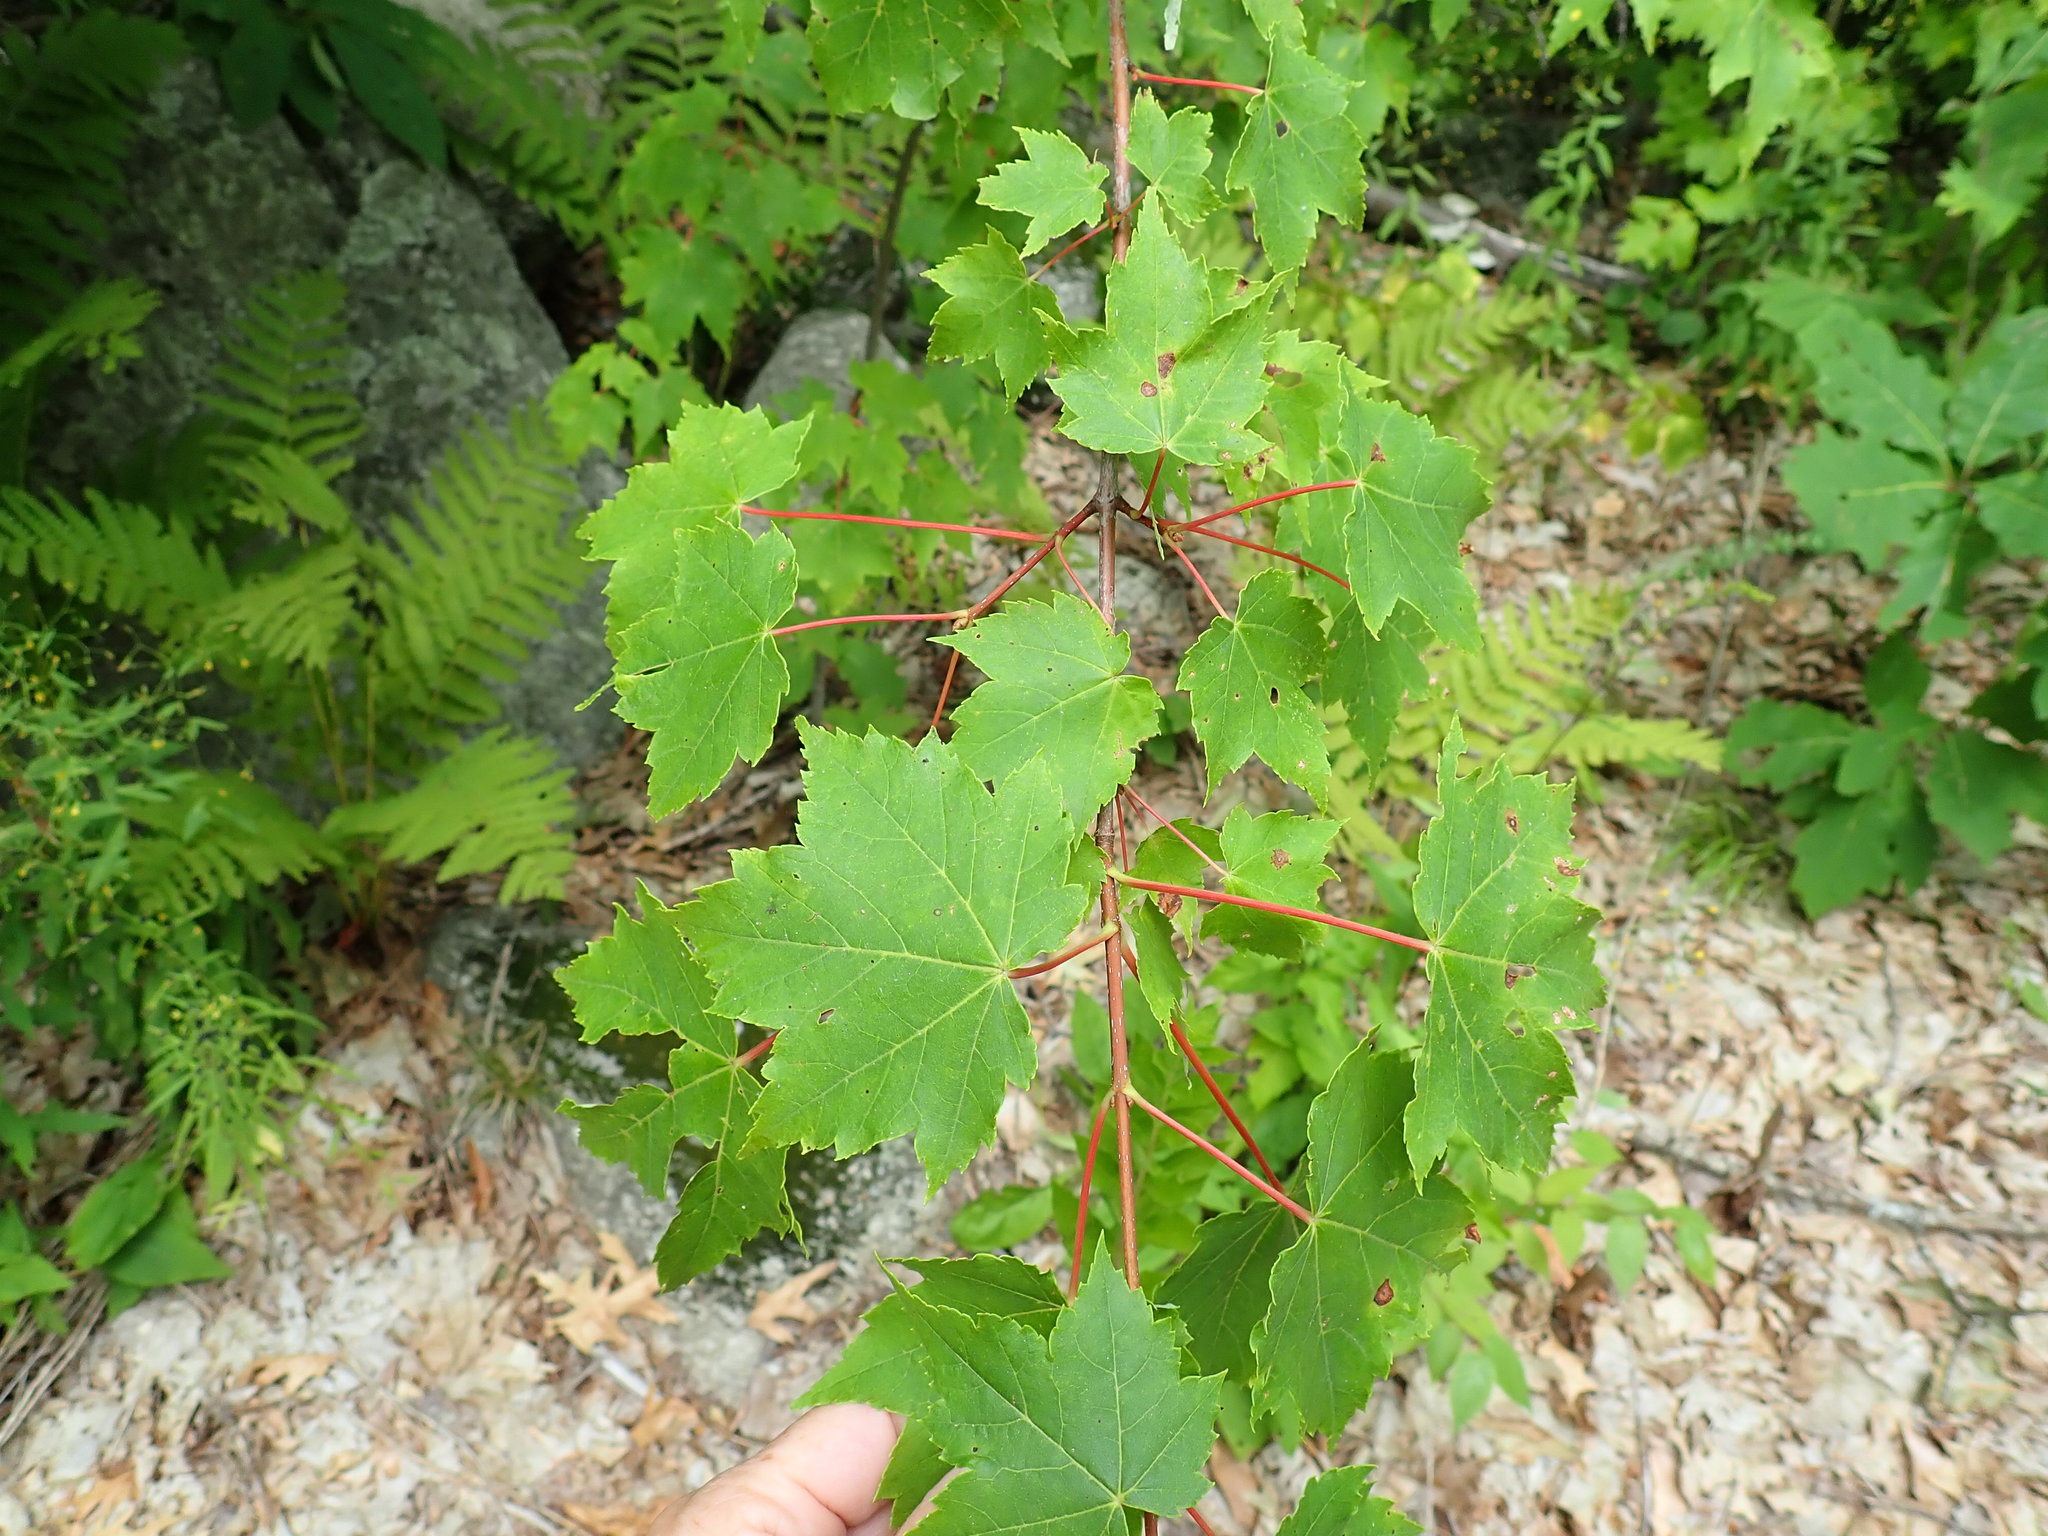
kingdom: Plantae
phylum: Tracheophyta
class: Magnoliopsida
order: Sapindales
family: Sapindaceae
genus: Acer
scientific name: Acer rubrum
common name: Red maple
